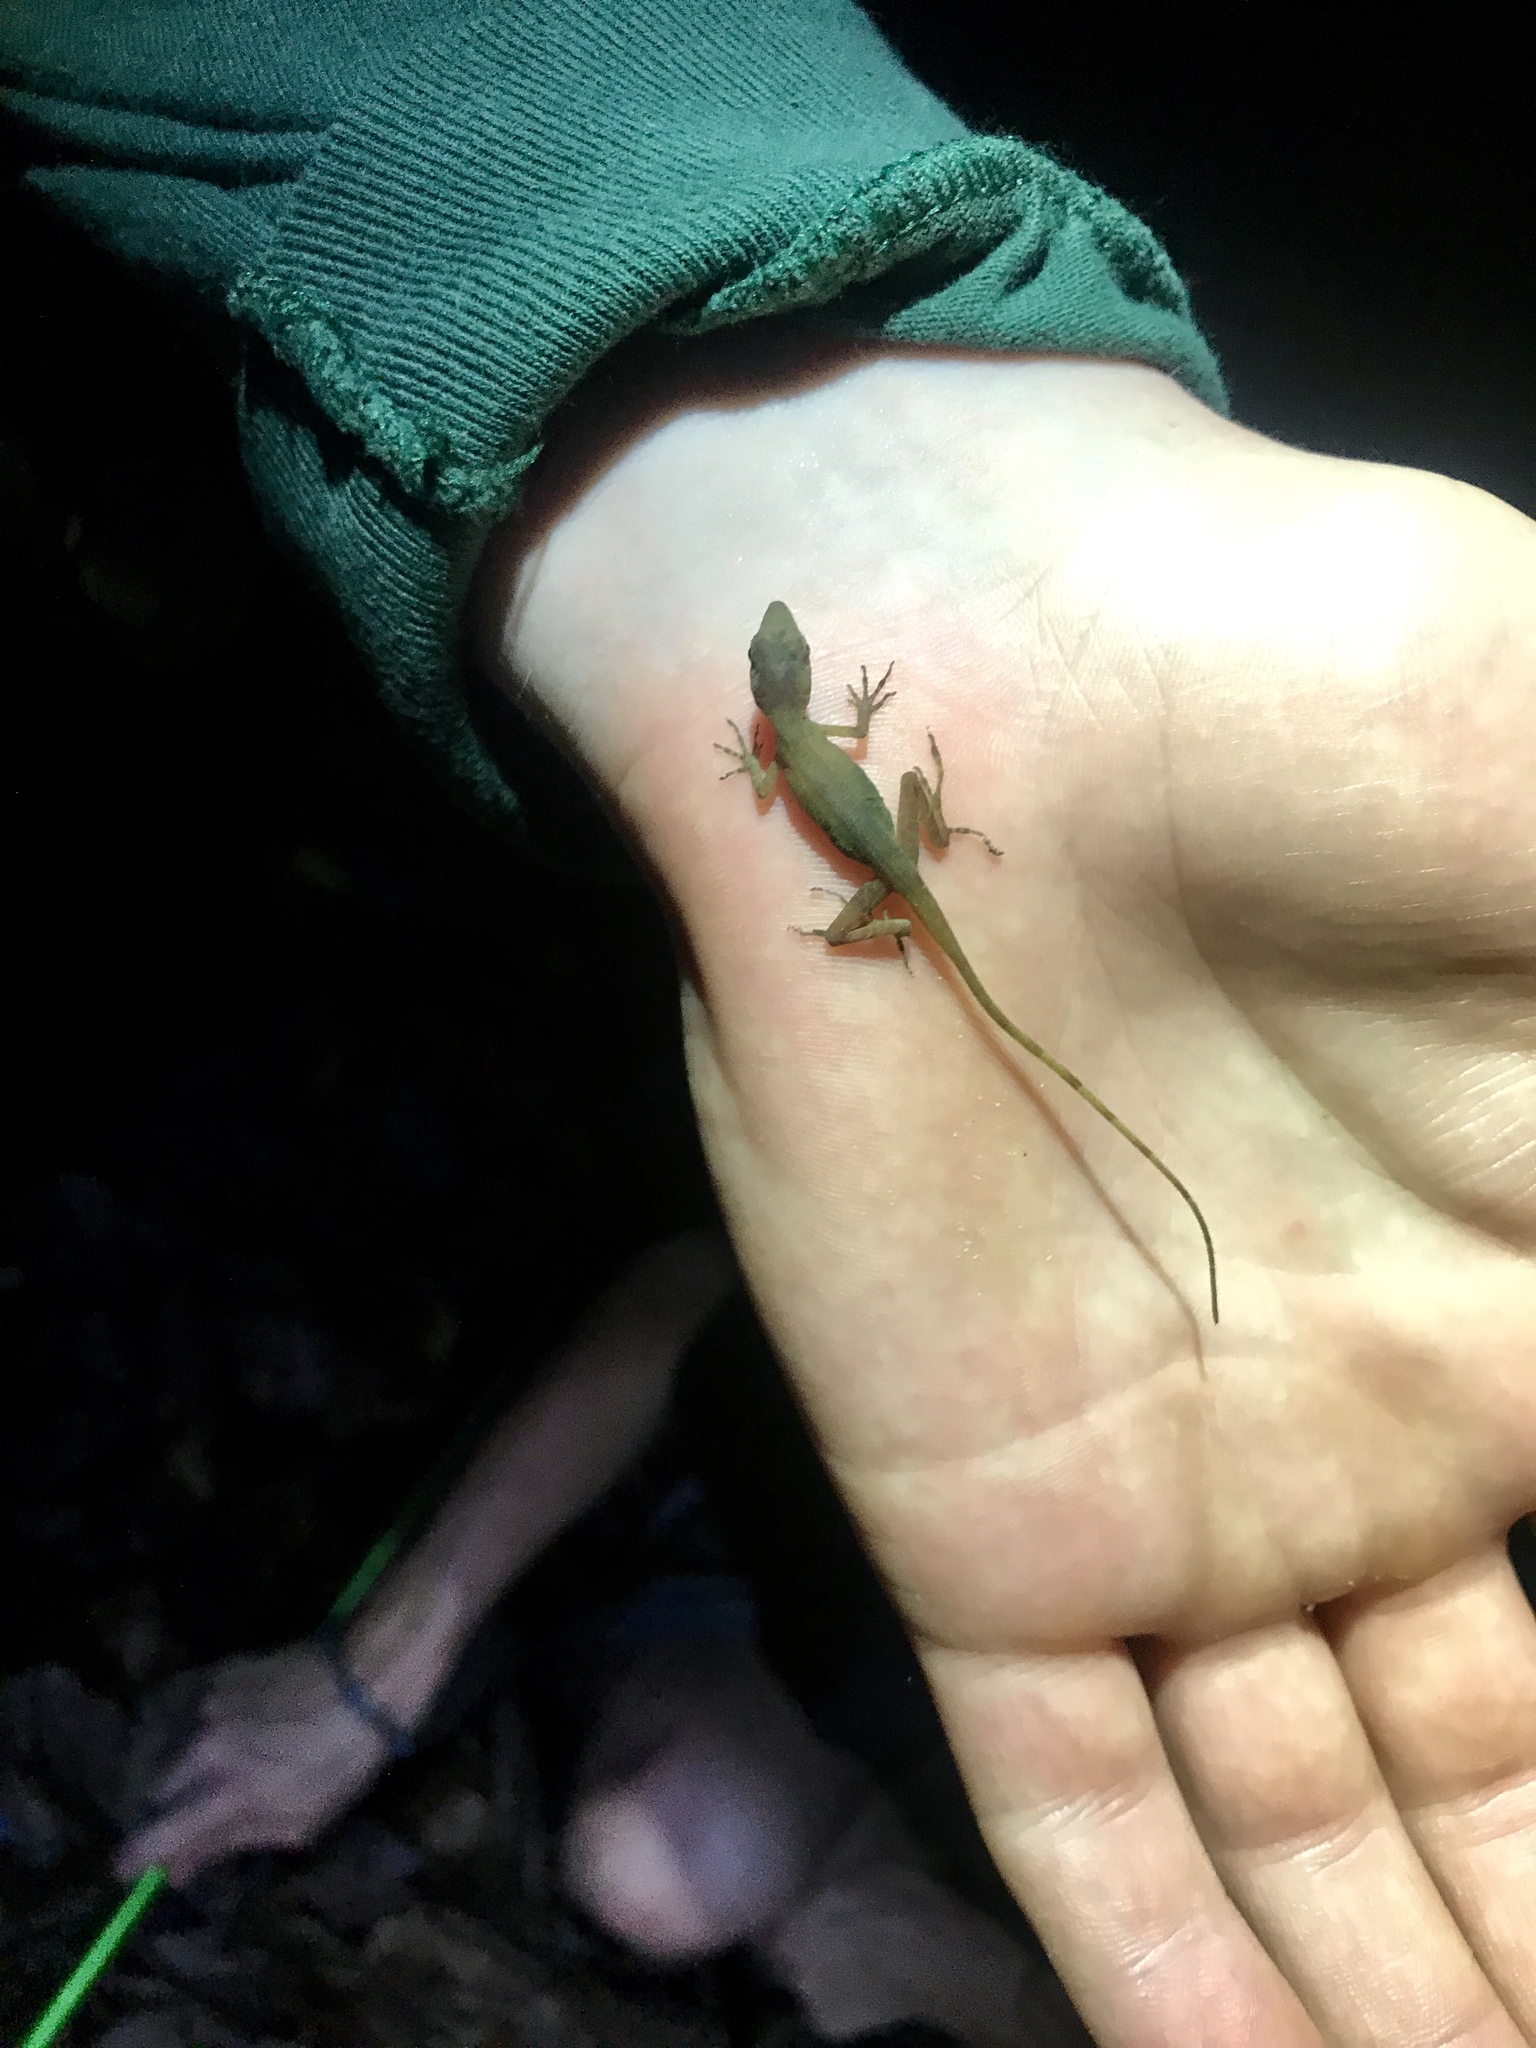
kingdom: Animalia
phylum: Chordata
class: Squamata
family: Dactyloidae
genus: Anolis
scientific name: Anolis apletophallus
